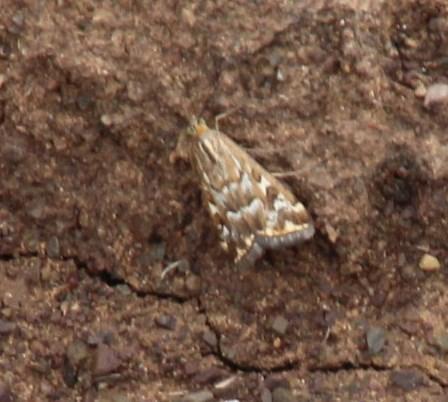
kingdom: Animalia
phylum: Arthropoda
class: Insecta
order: Lepidoptera
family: Crambidae
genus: Loxostege
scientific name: Loxostege frustalis
